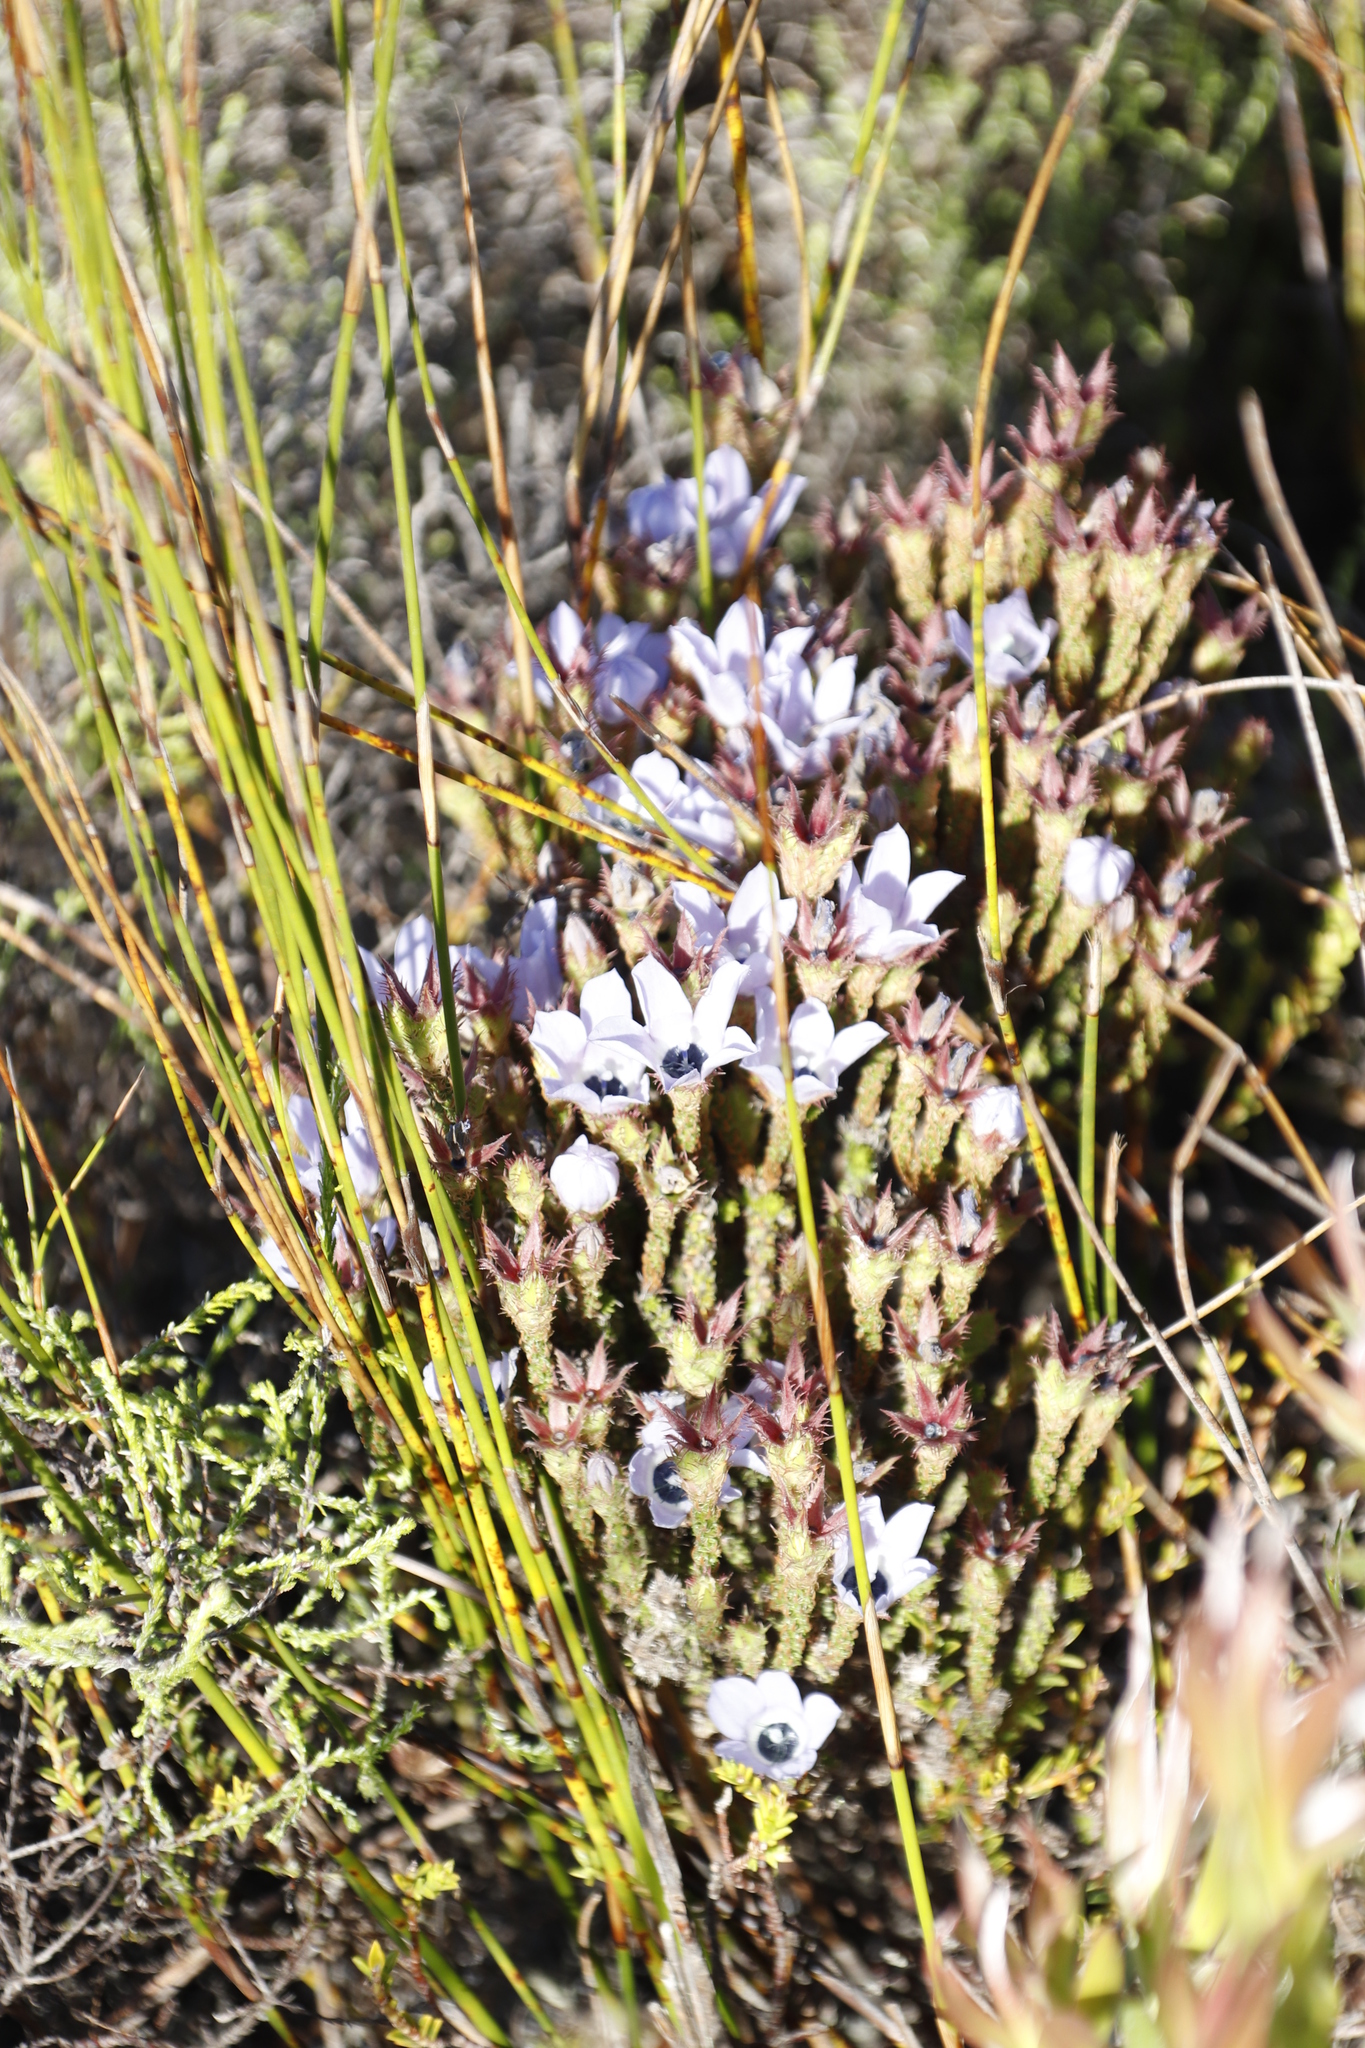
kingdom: Plantae
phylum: Tracheophyta
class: Magnoliopsida
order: Asterales
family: Campanulaceae
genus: Roella
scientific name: Roella triflora
